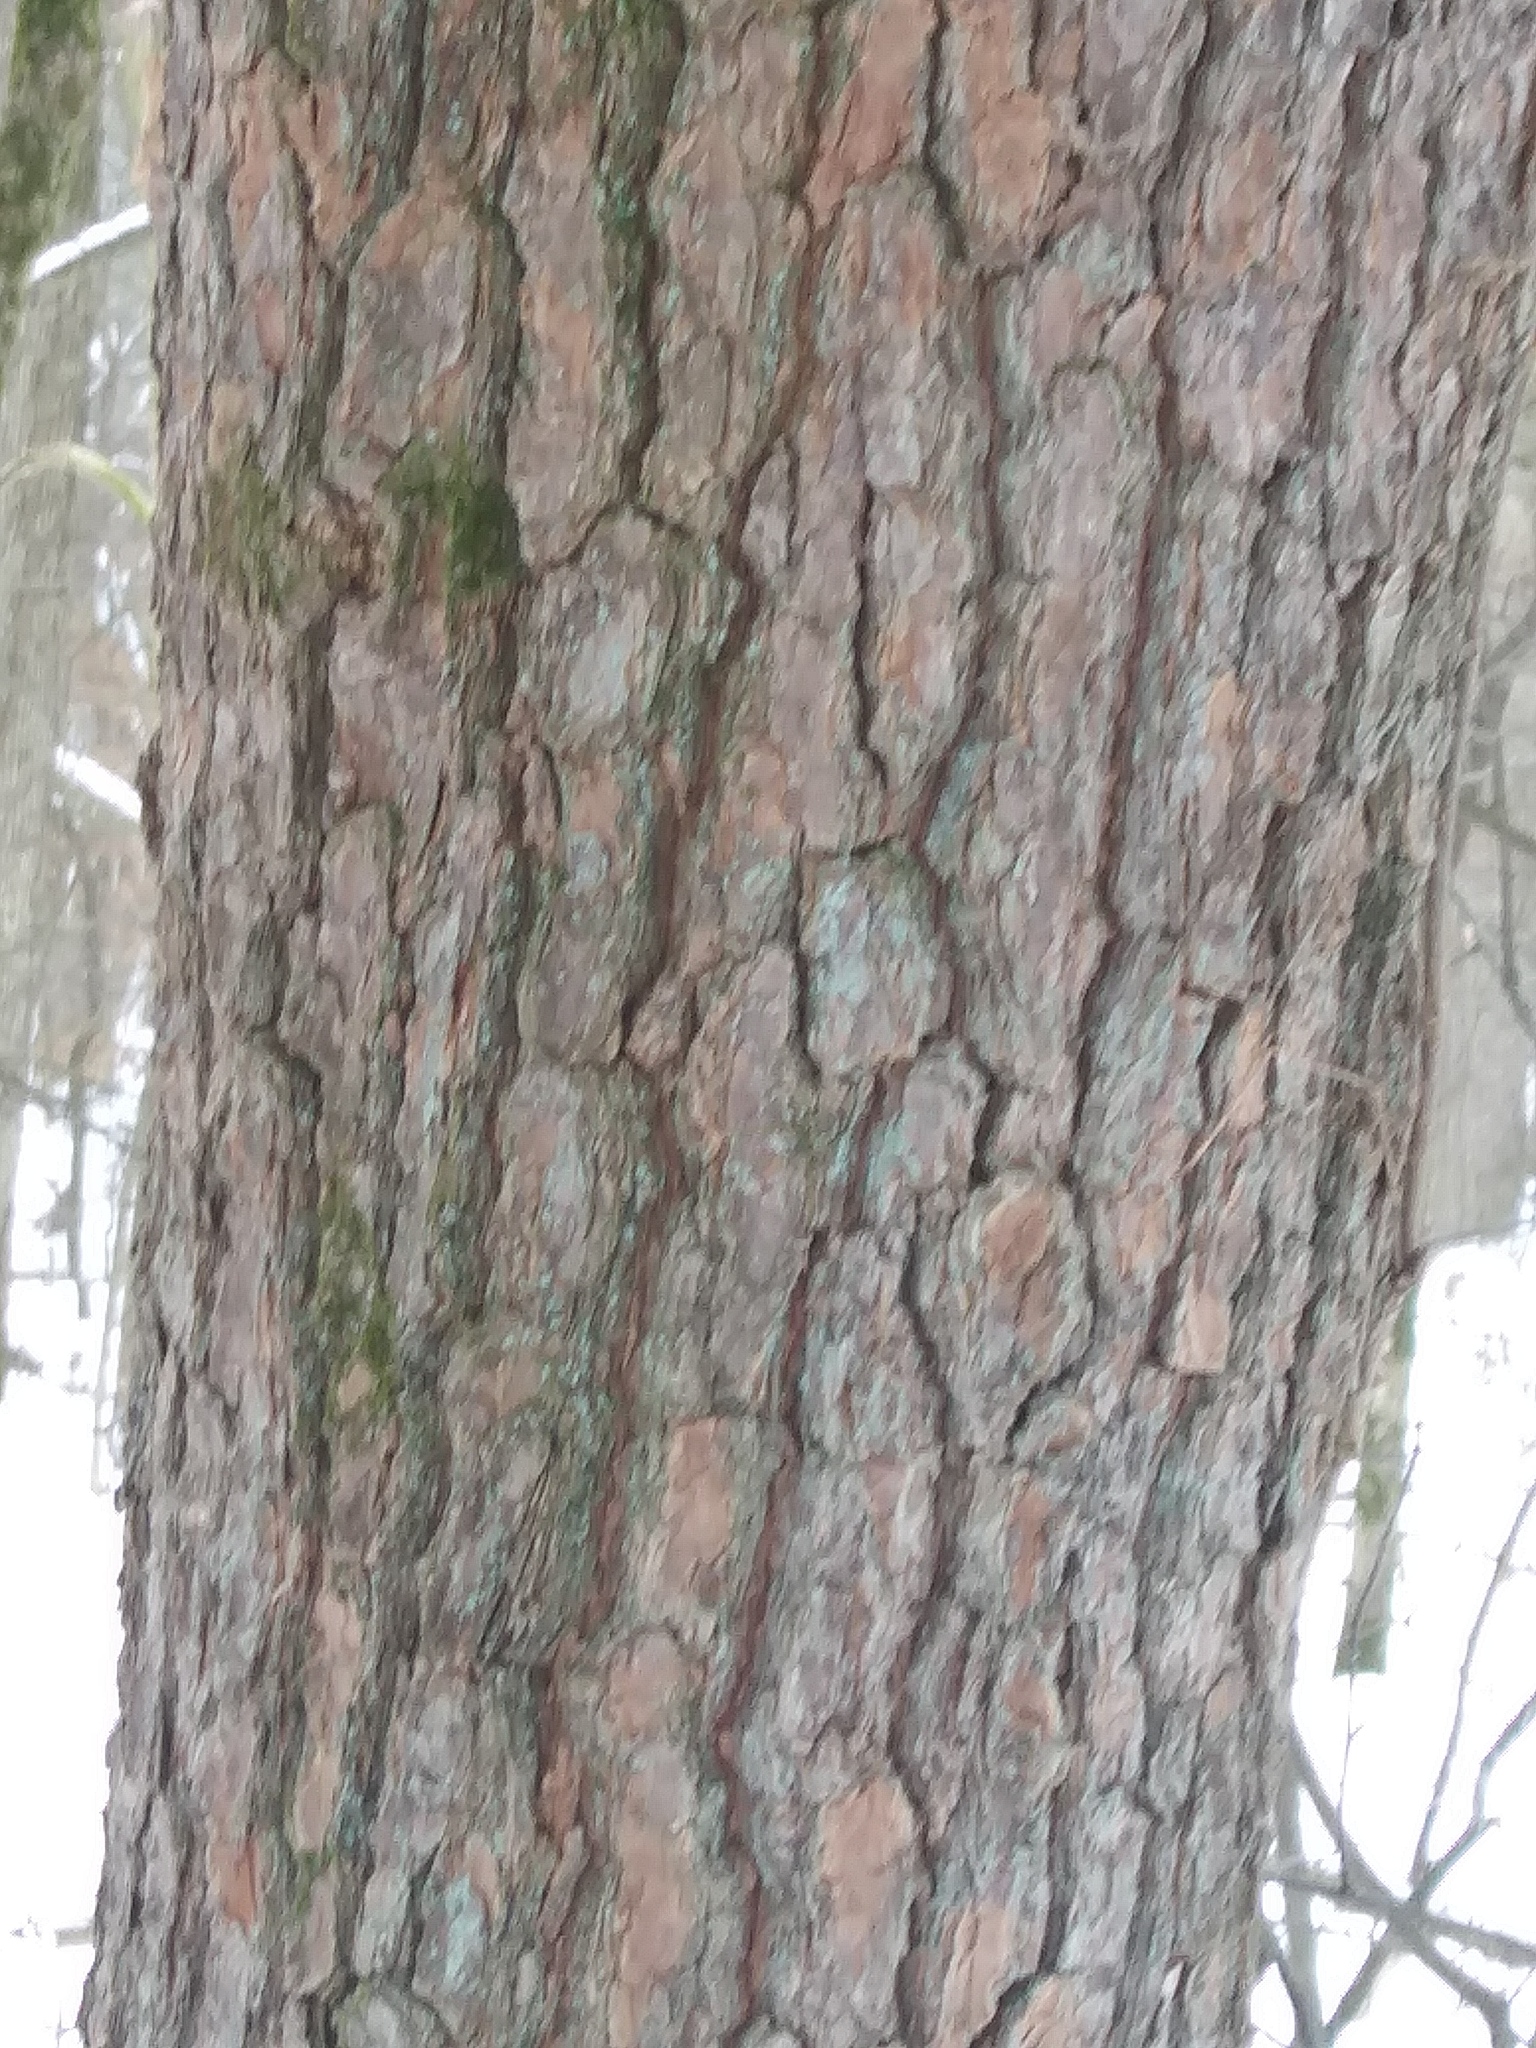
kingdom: Plantae
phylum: Tracheophyta
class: Pinopsida
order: Pinales
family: Pinaceae
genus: Pinus
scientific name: Pinus strobus
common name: Weymouth pine
